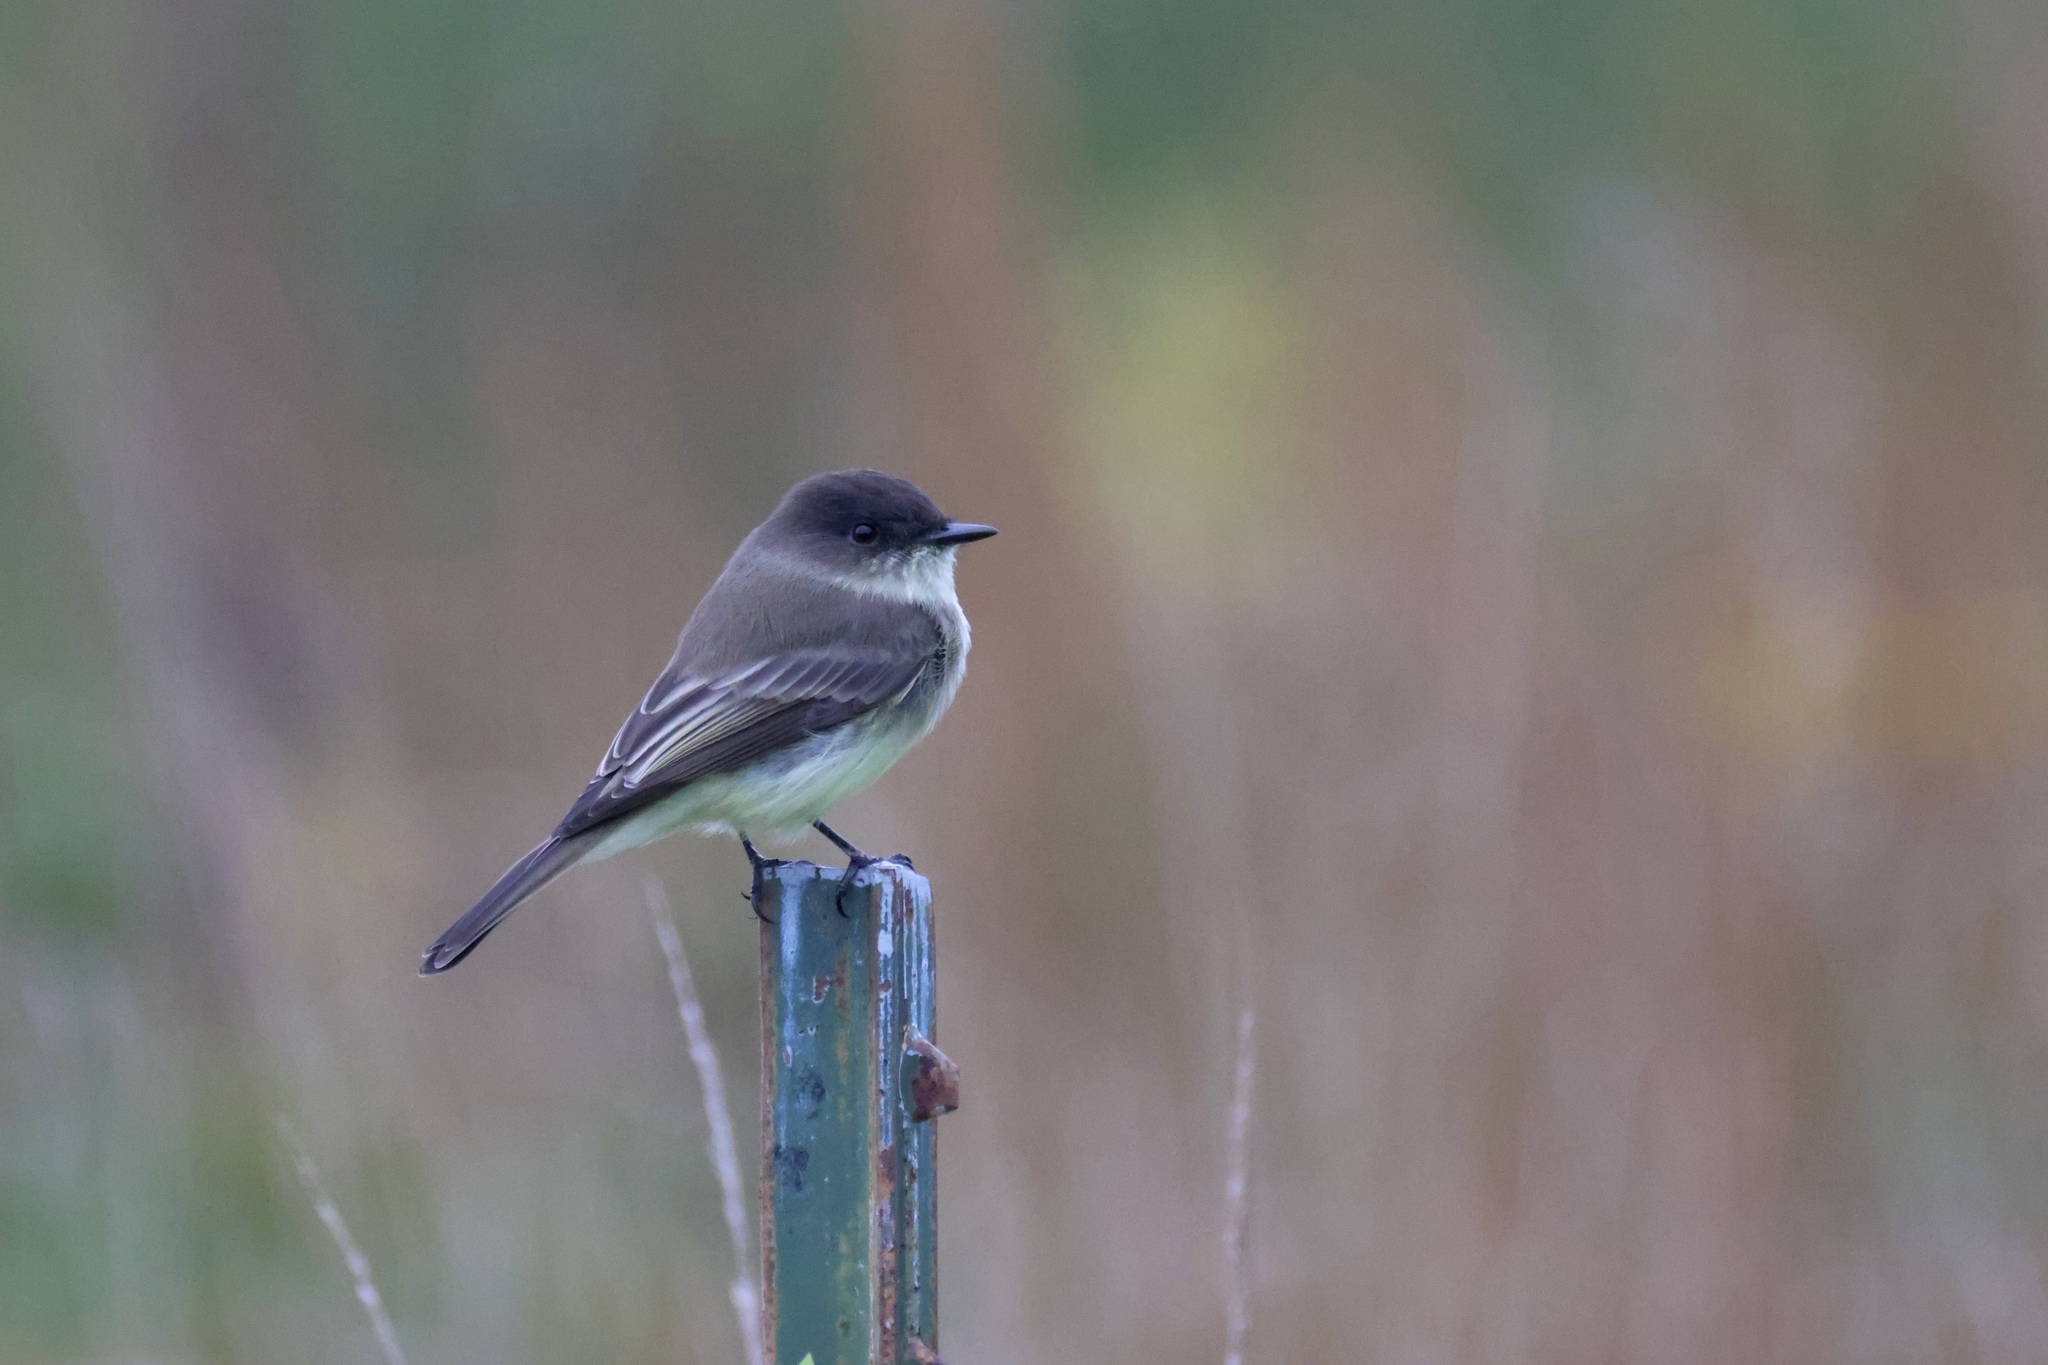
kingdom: Animalia
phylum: Chordata
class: Aves
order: Passeriformes
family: Tyrannidae
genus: Sayornis
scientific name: Sayornis phoebe
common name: Eastern phoebe
